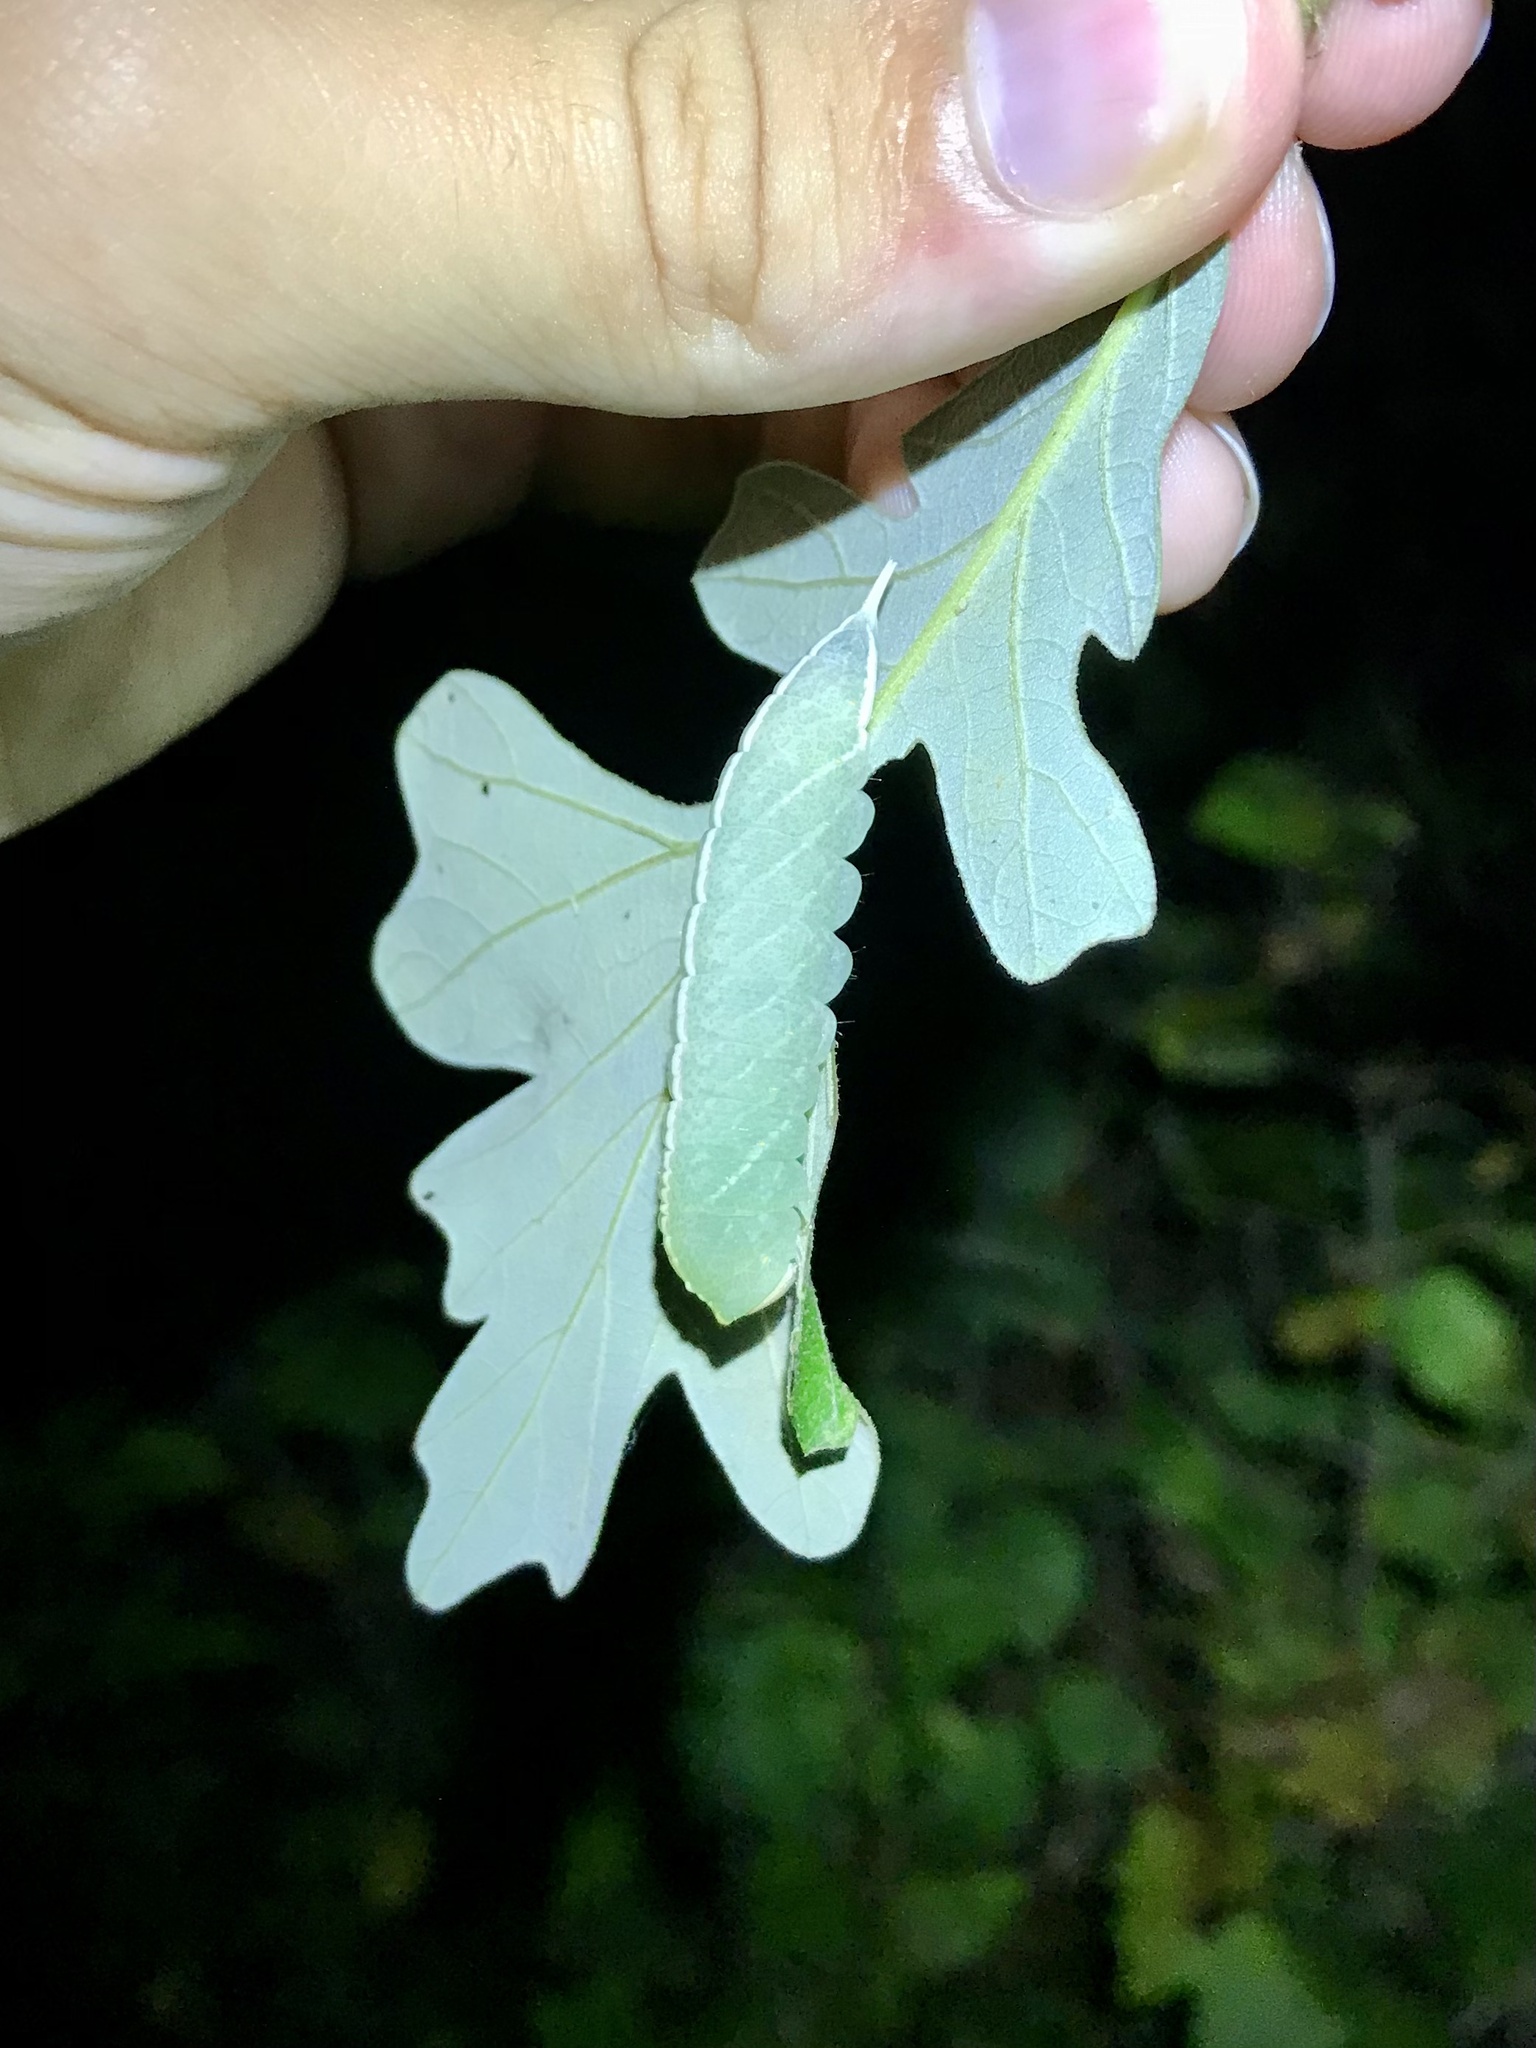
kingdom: Animalia
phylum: Arthropoda
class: Insecta
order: Lepidoptera
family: Notodontidae
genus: Macrurocampa
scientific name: Macrurocampa marthesia
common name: Mottled prominent
